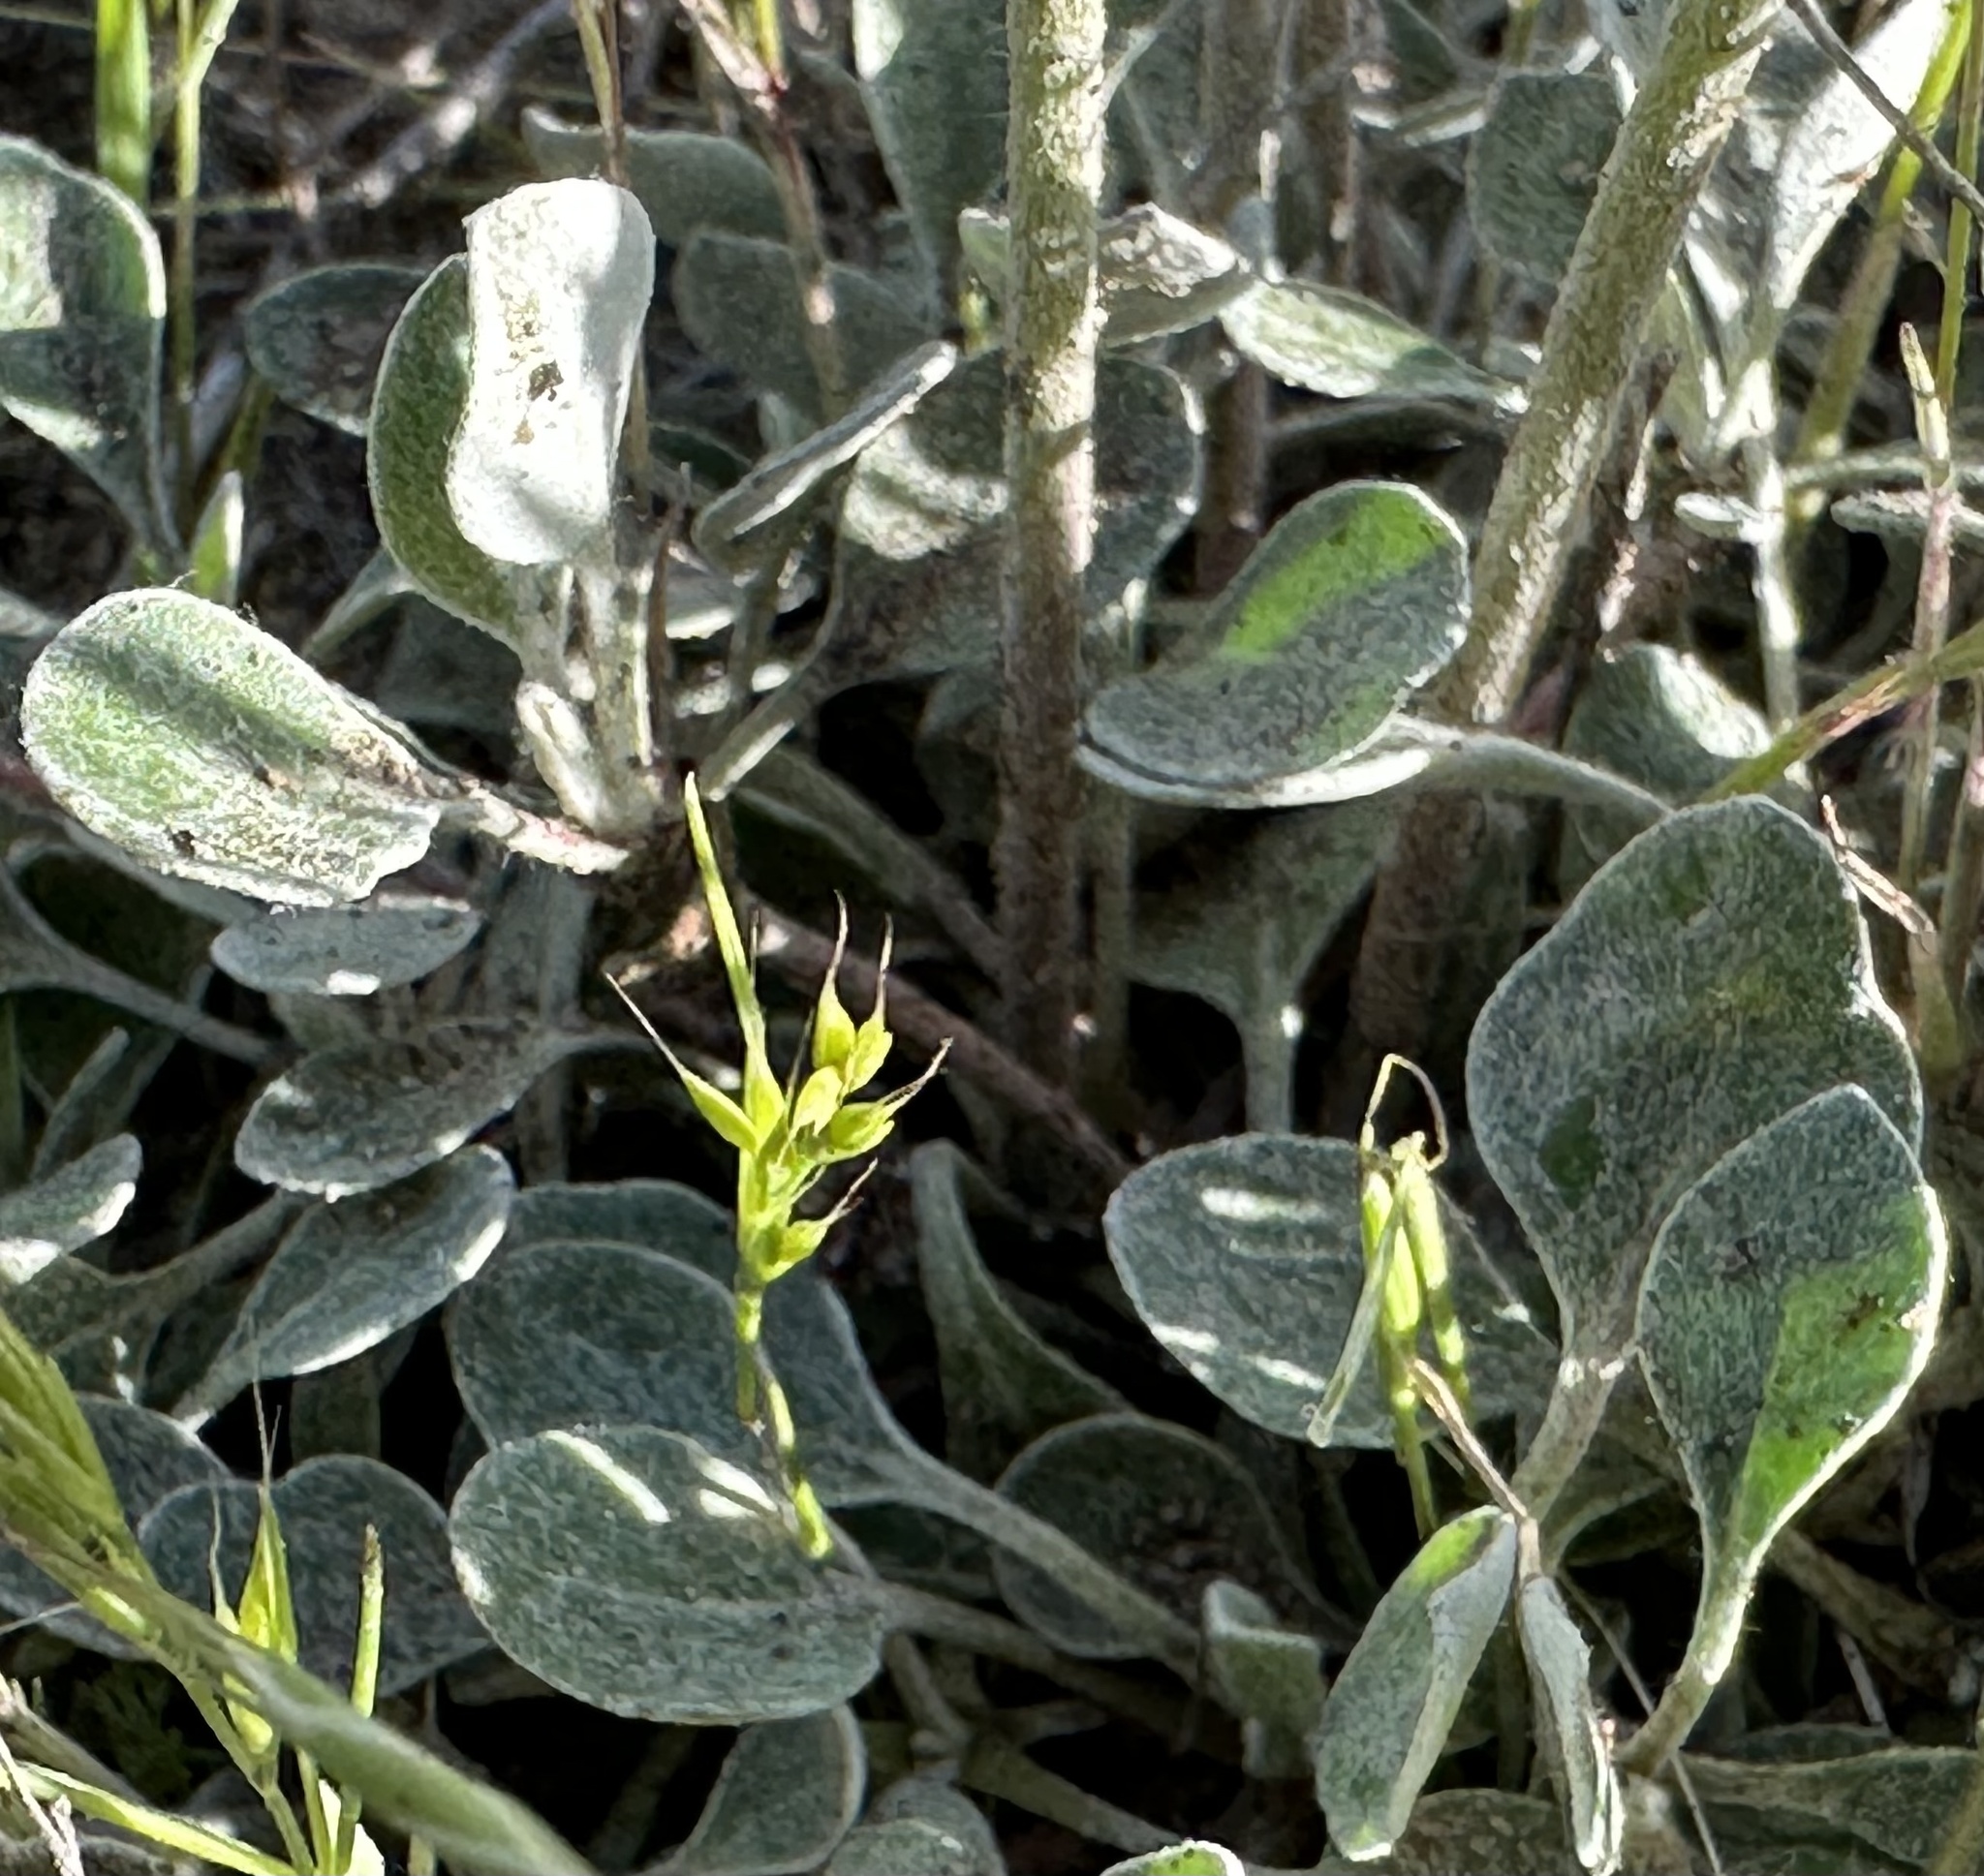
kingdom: Plantae
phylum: Tracheophyta
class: Magnoliopsida
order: Caryophyllales
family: Polygonaceae
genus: Eriogonum
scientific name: Eriogonum umbellatum
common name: Sulfur-buckwheat
